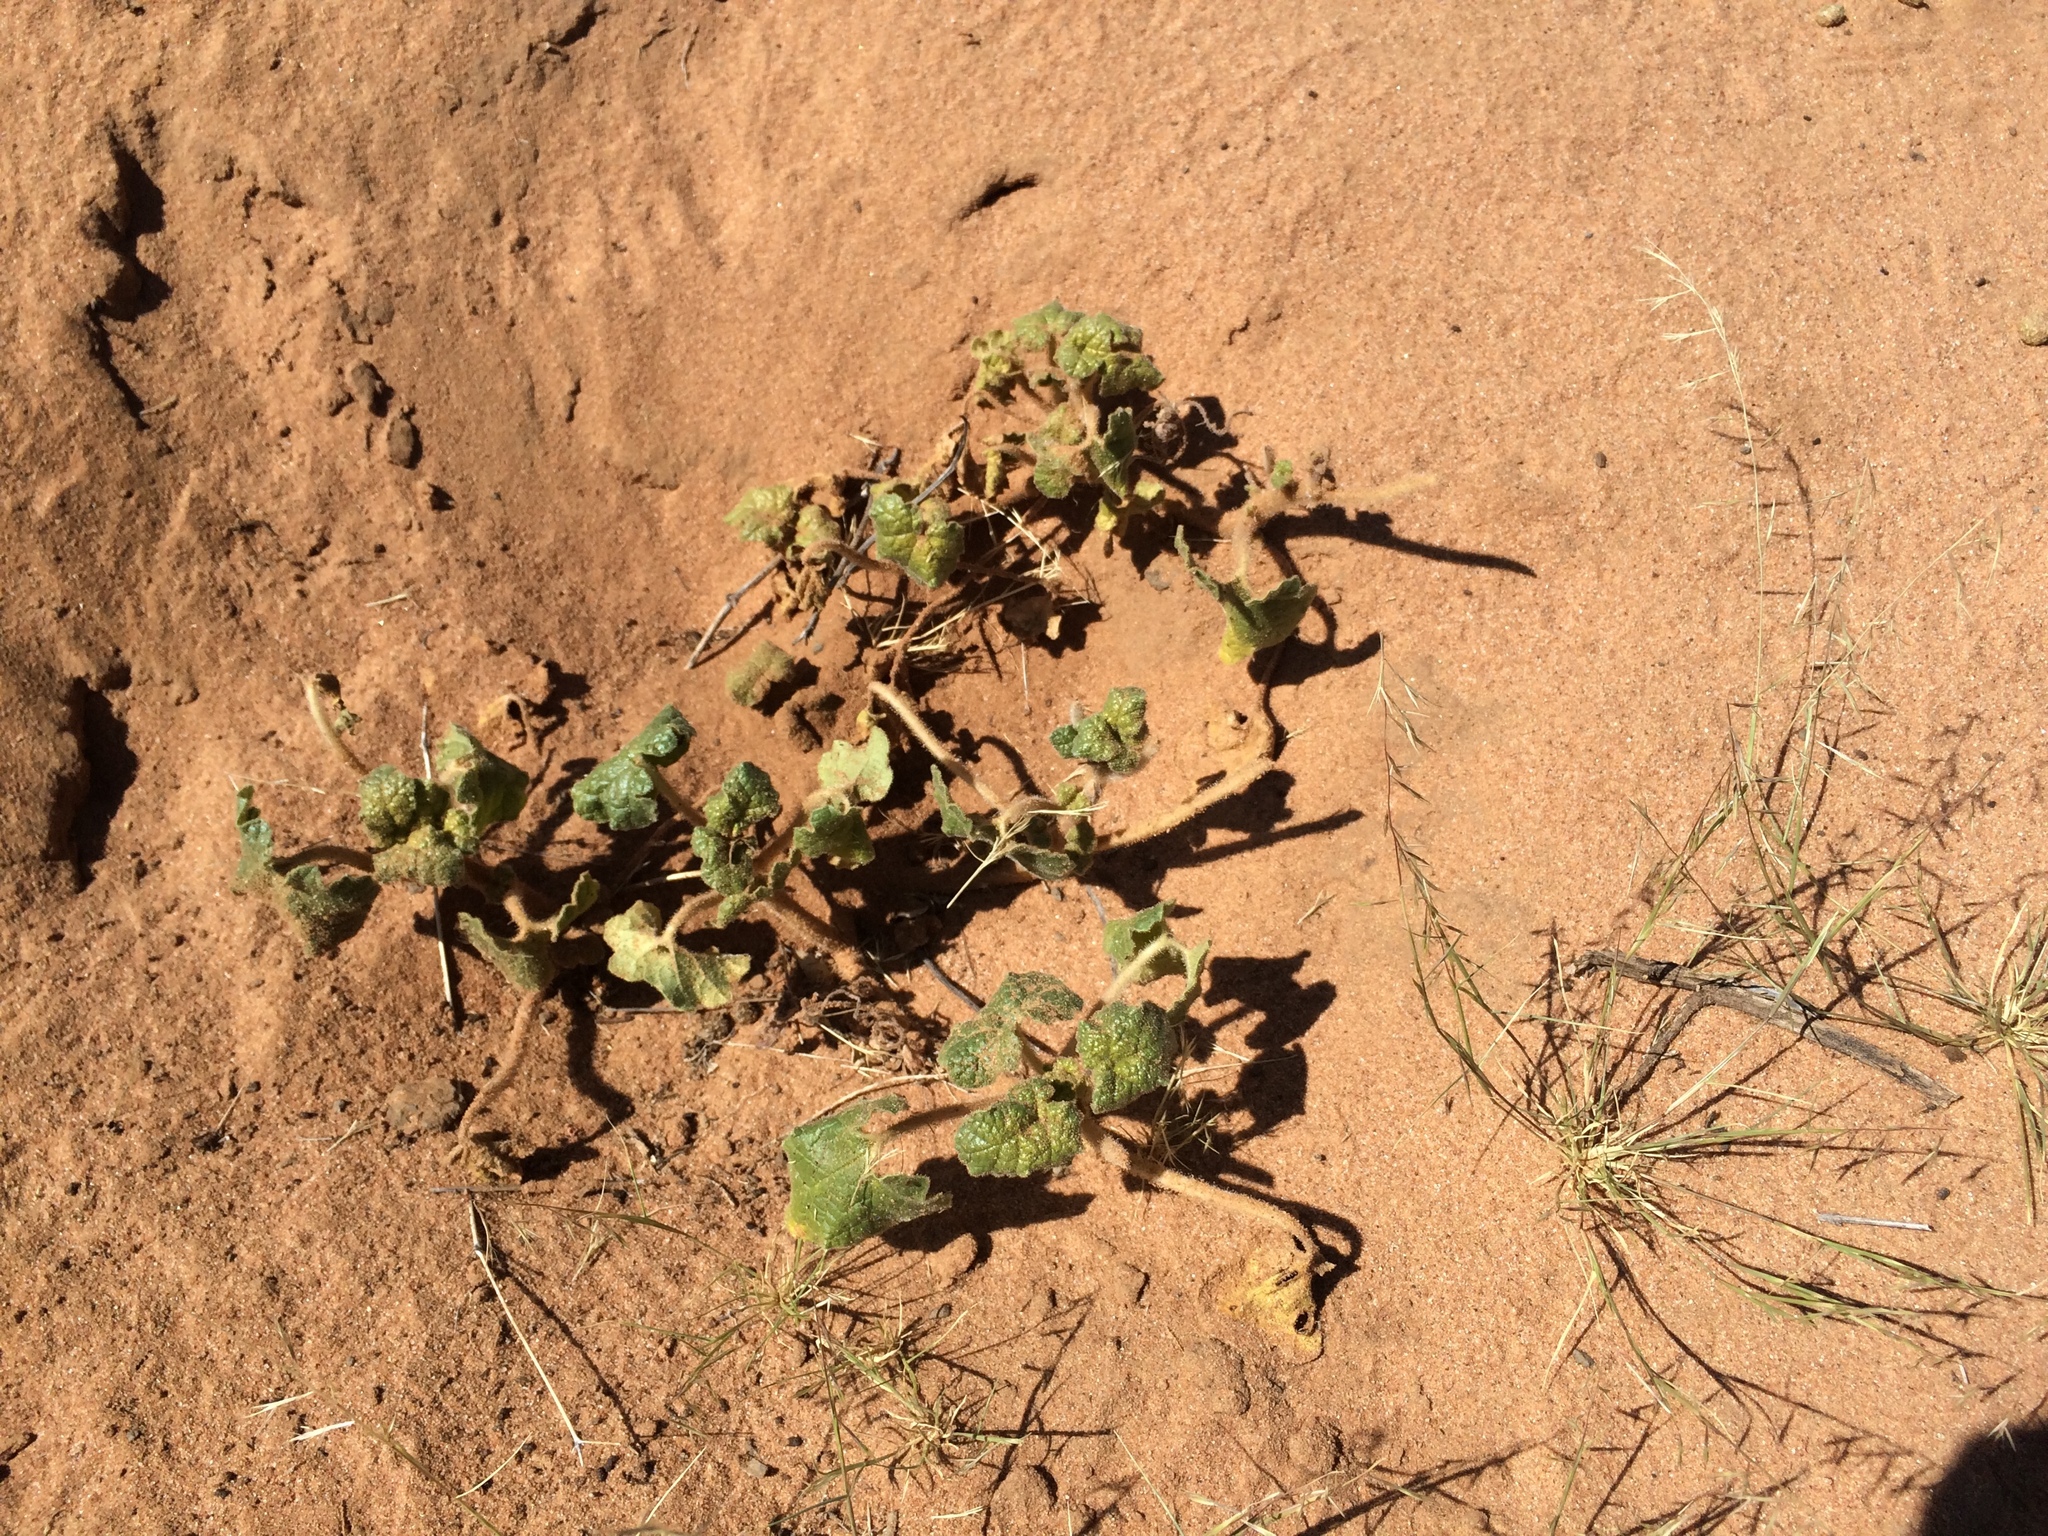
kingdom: Plantae
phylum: Tracheophyta
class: Magnoliopsida
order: Lamiales
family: Martyniaceae
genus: Proboscidea
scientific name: Proboscidea althaeifolia
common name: Desert unicorn-plant
